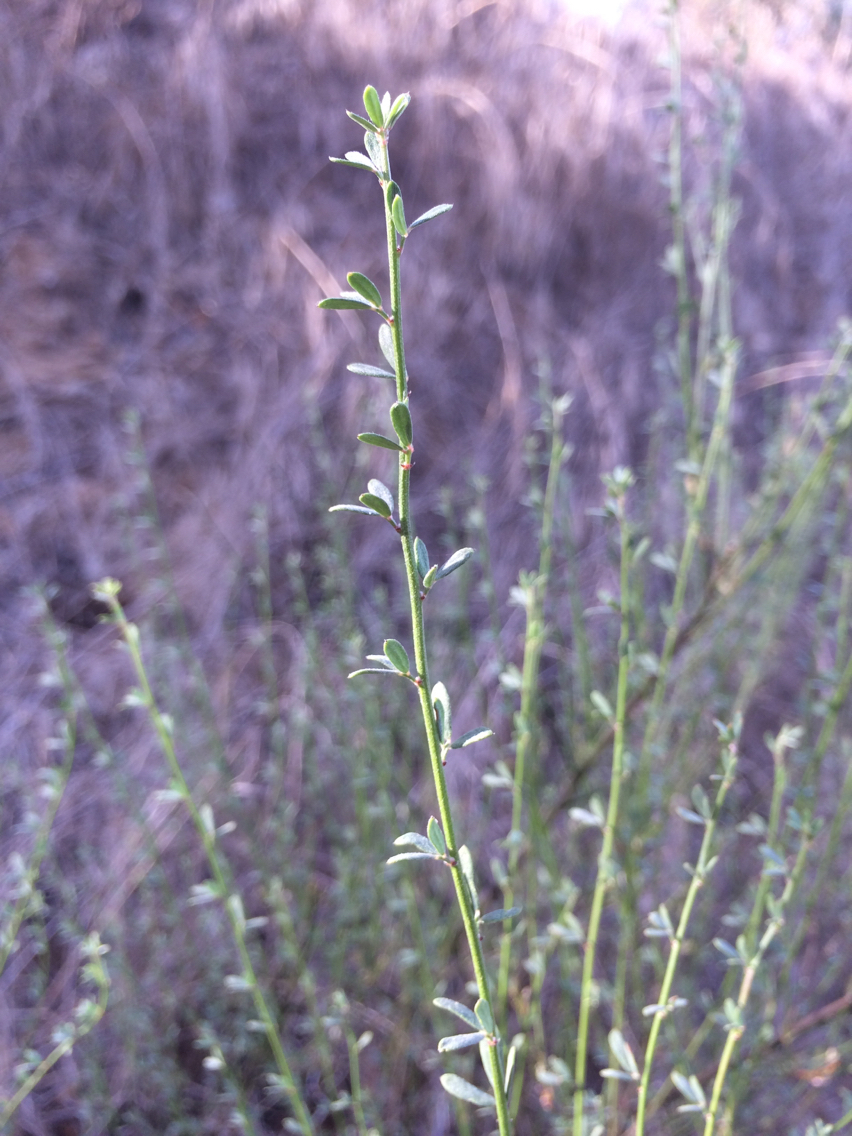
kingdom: Plantae
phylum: Tracheophyta
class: Magnoliopsida
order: Fabales
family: Fabaceae
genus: Acmispon
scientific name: Acmispon glaber
